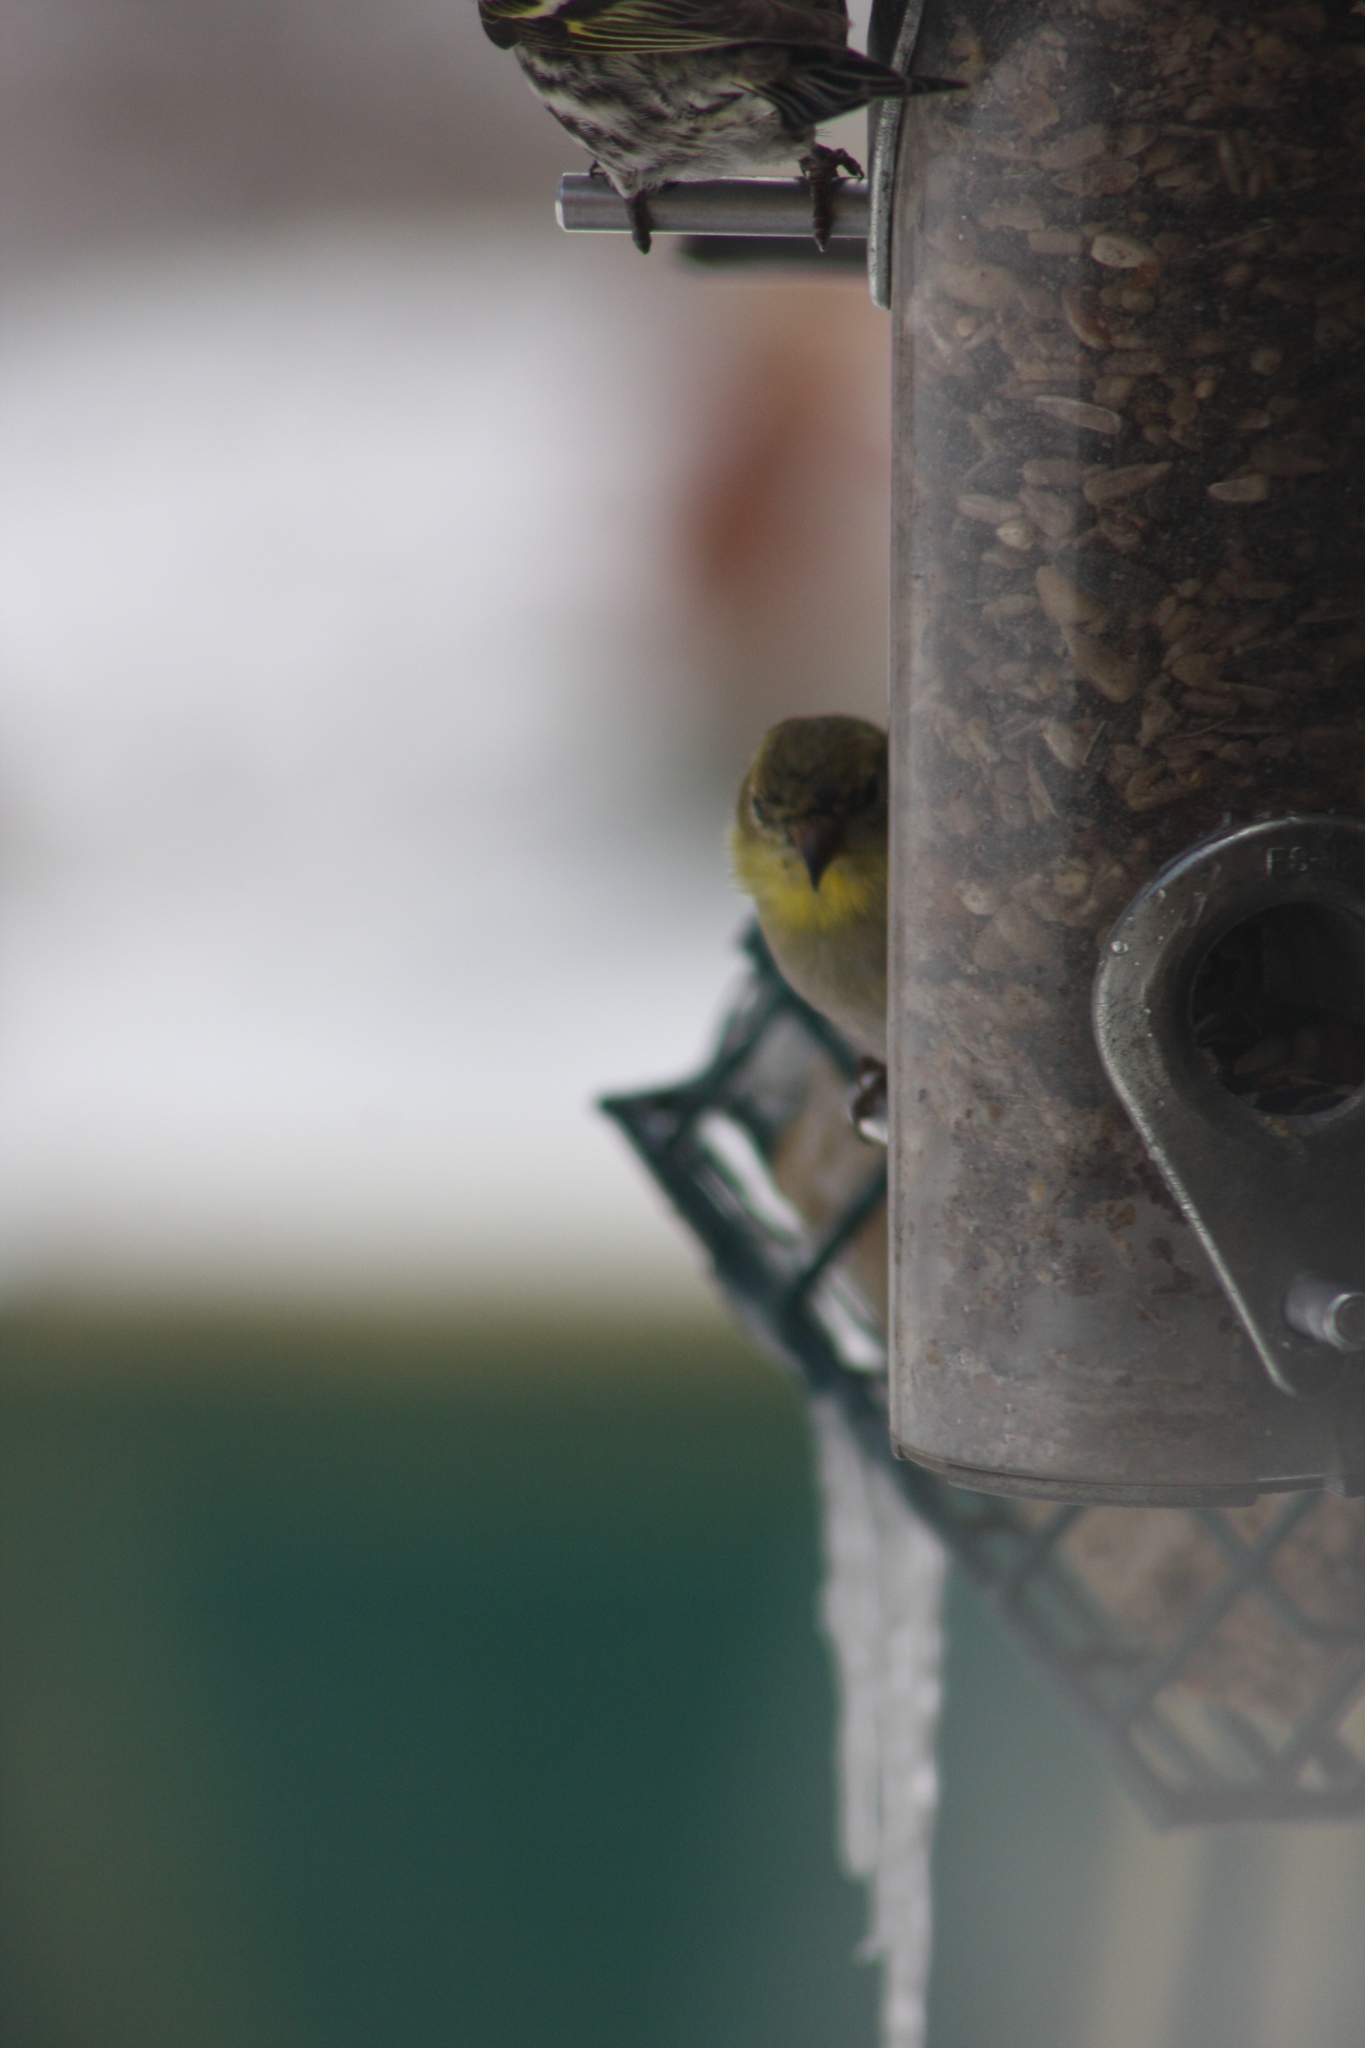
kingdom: Animalia
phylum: Chordata
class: Aves
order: Passeriformes
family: Fringillidae
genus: Spinus
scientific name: Spinus tristis
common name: American goldfinch
